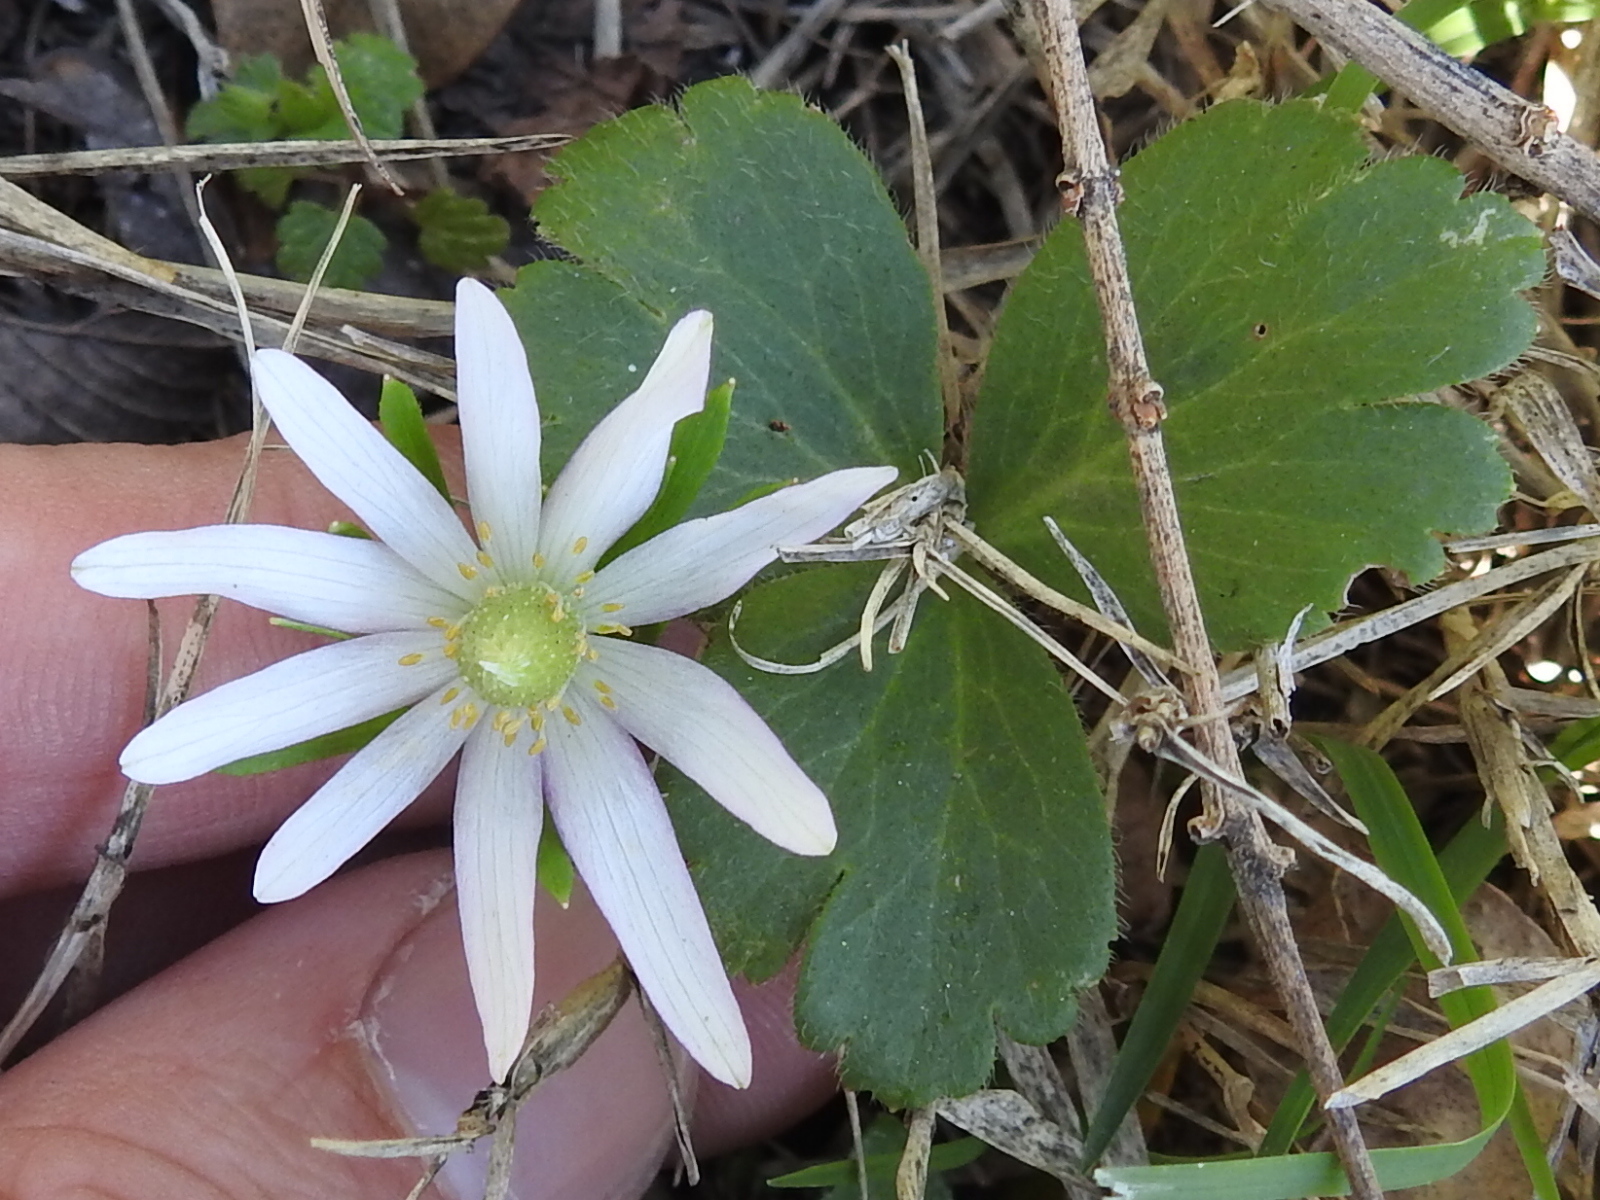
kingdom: Plantae
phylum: Tracheophyta
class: Magnoliopsida
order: Ranunculales
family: Ranunculaceae
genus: Anemone
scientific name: Anemone berlandieri
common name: Ten-petal anemone
